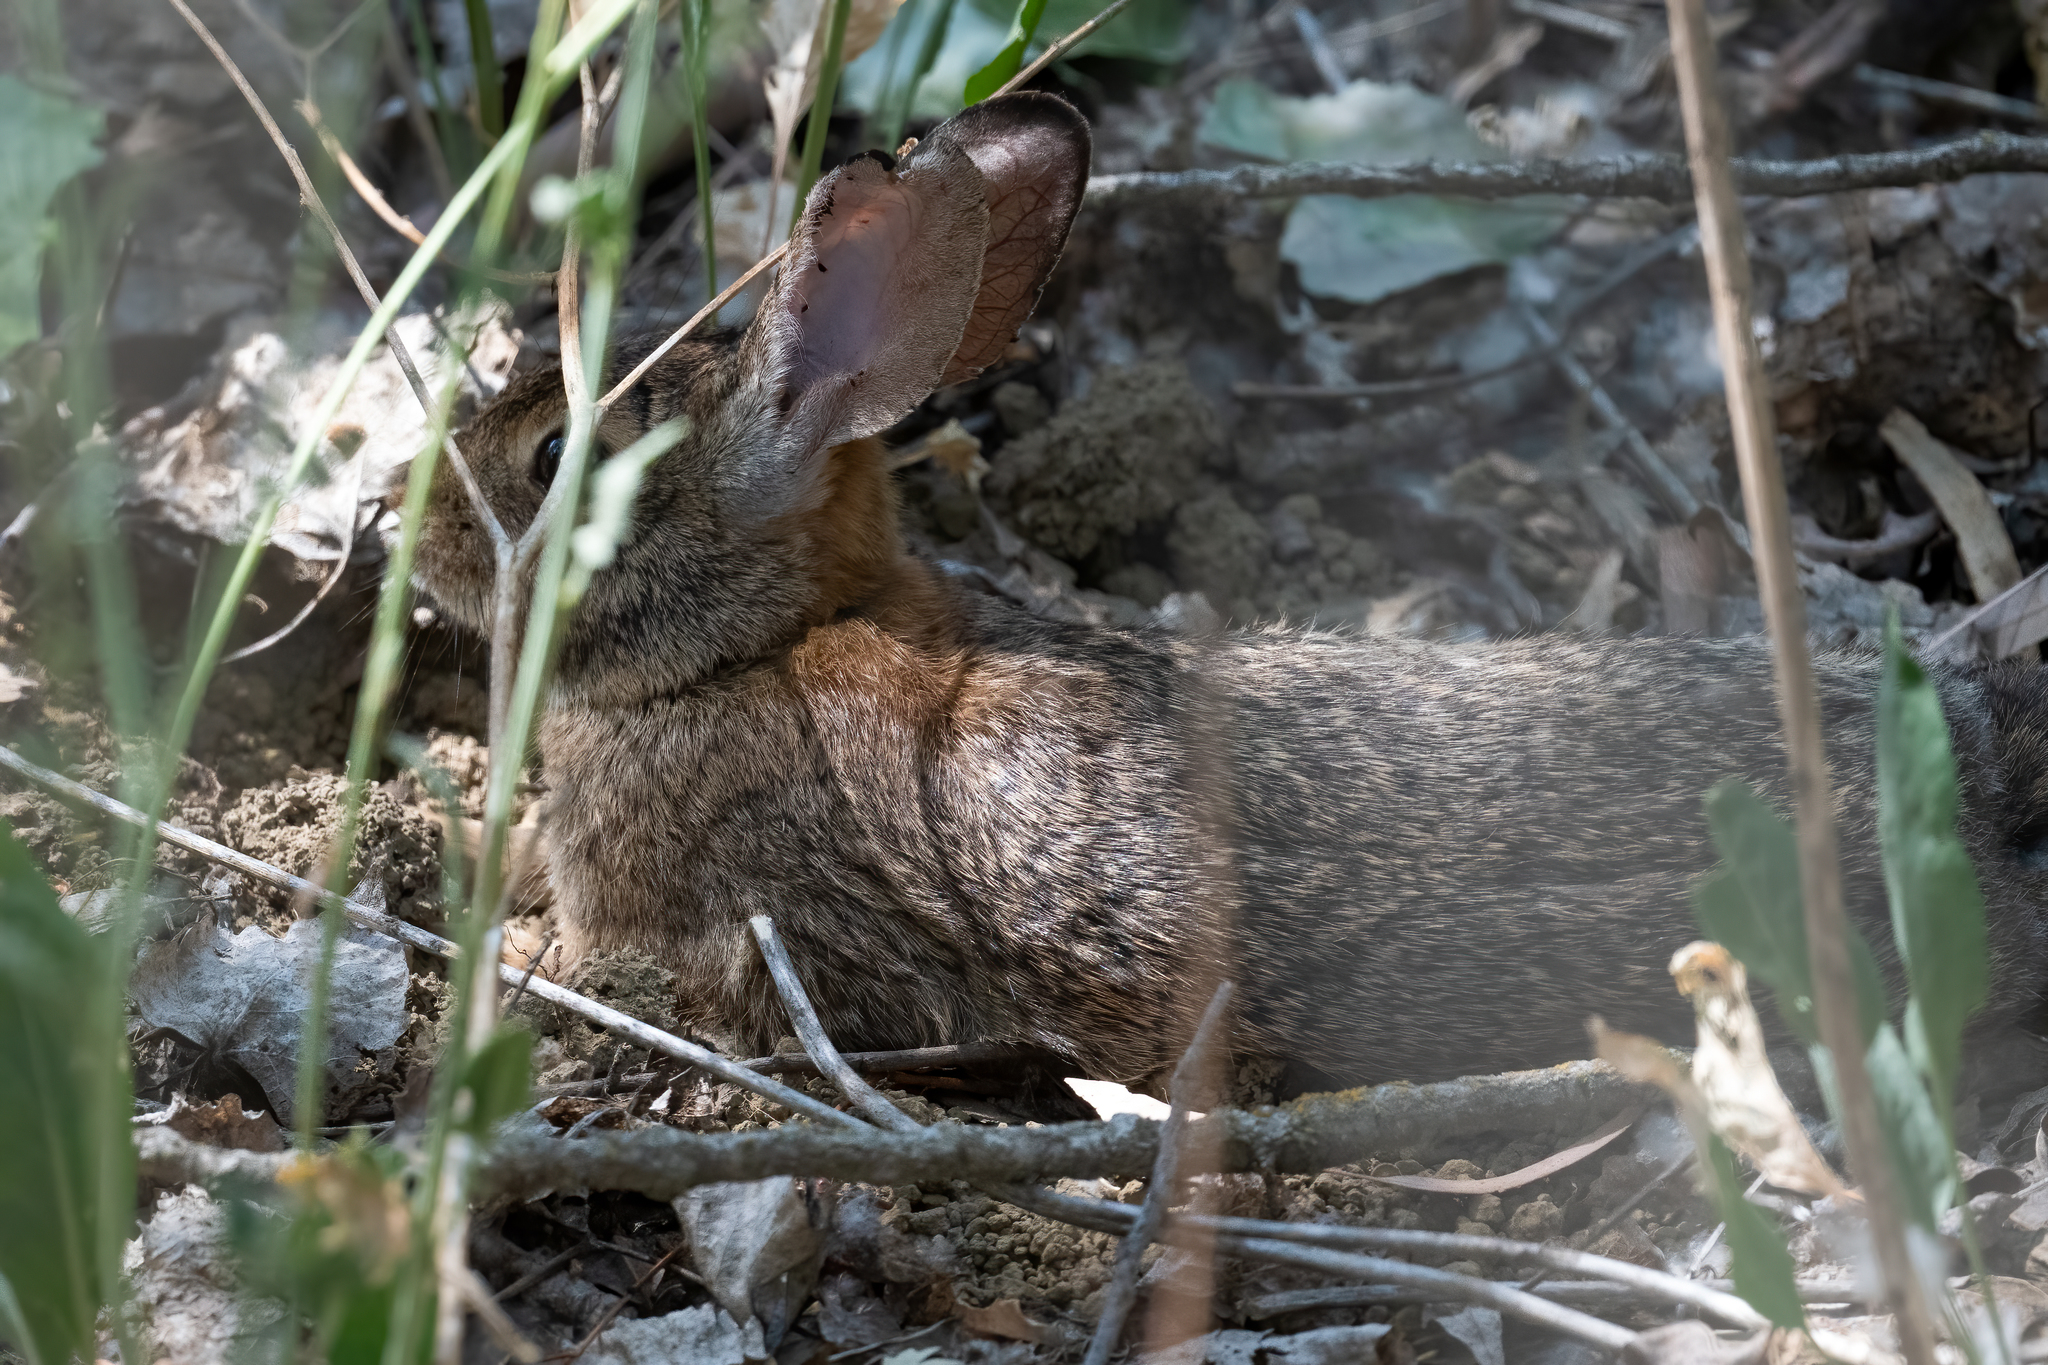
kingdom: Animalia
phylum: Chordata
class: Mammalia
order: Lagomorpha
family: Leporidae
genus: Sylvilagus
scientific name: Sylvilagus audubonii
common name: Desert cottontail
